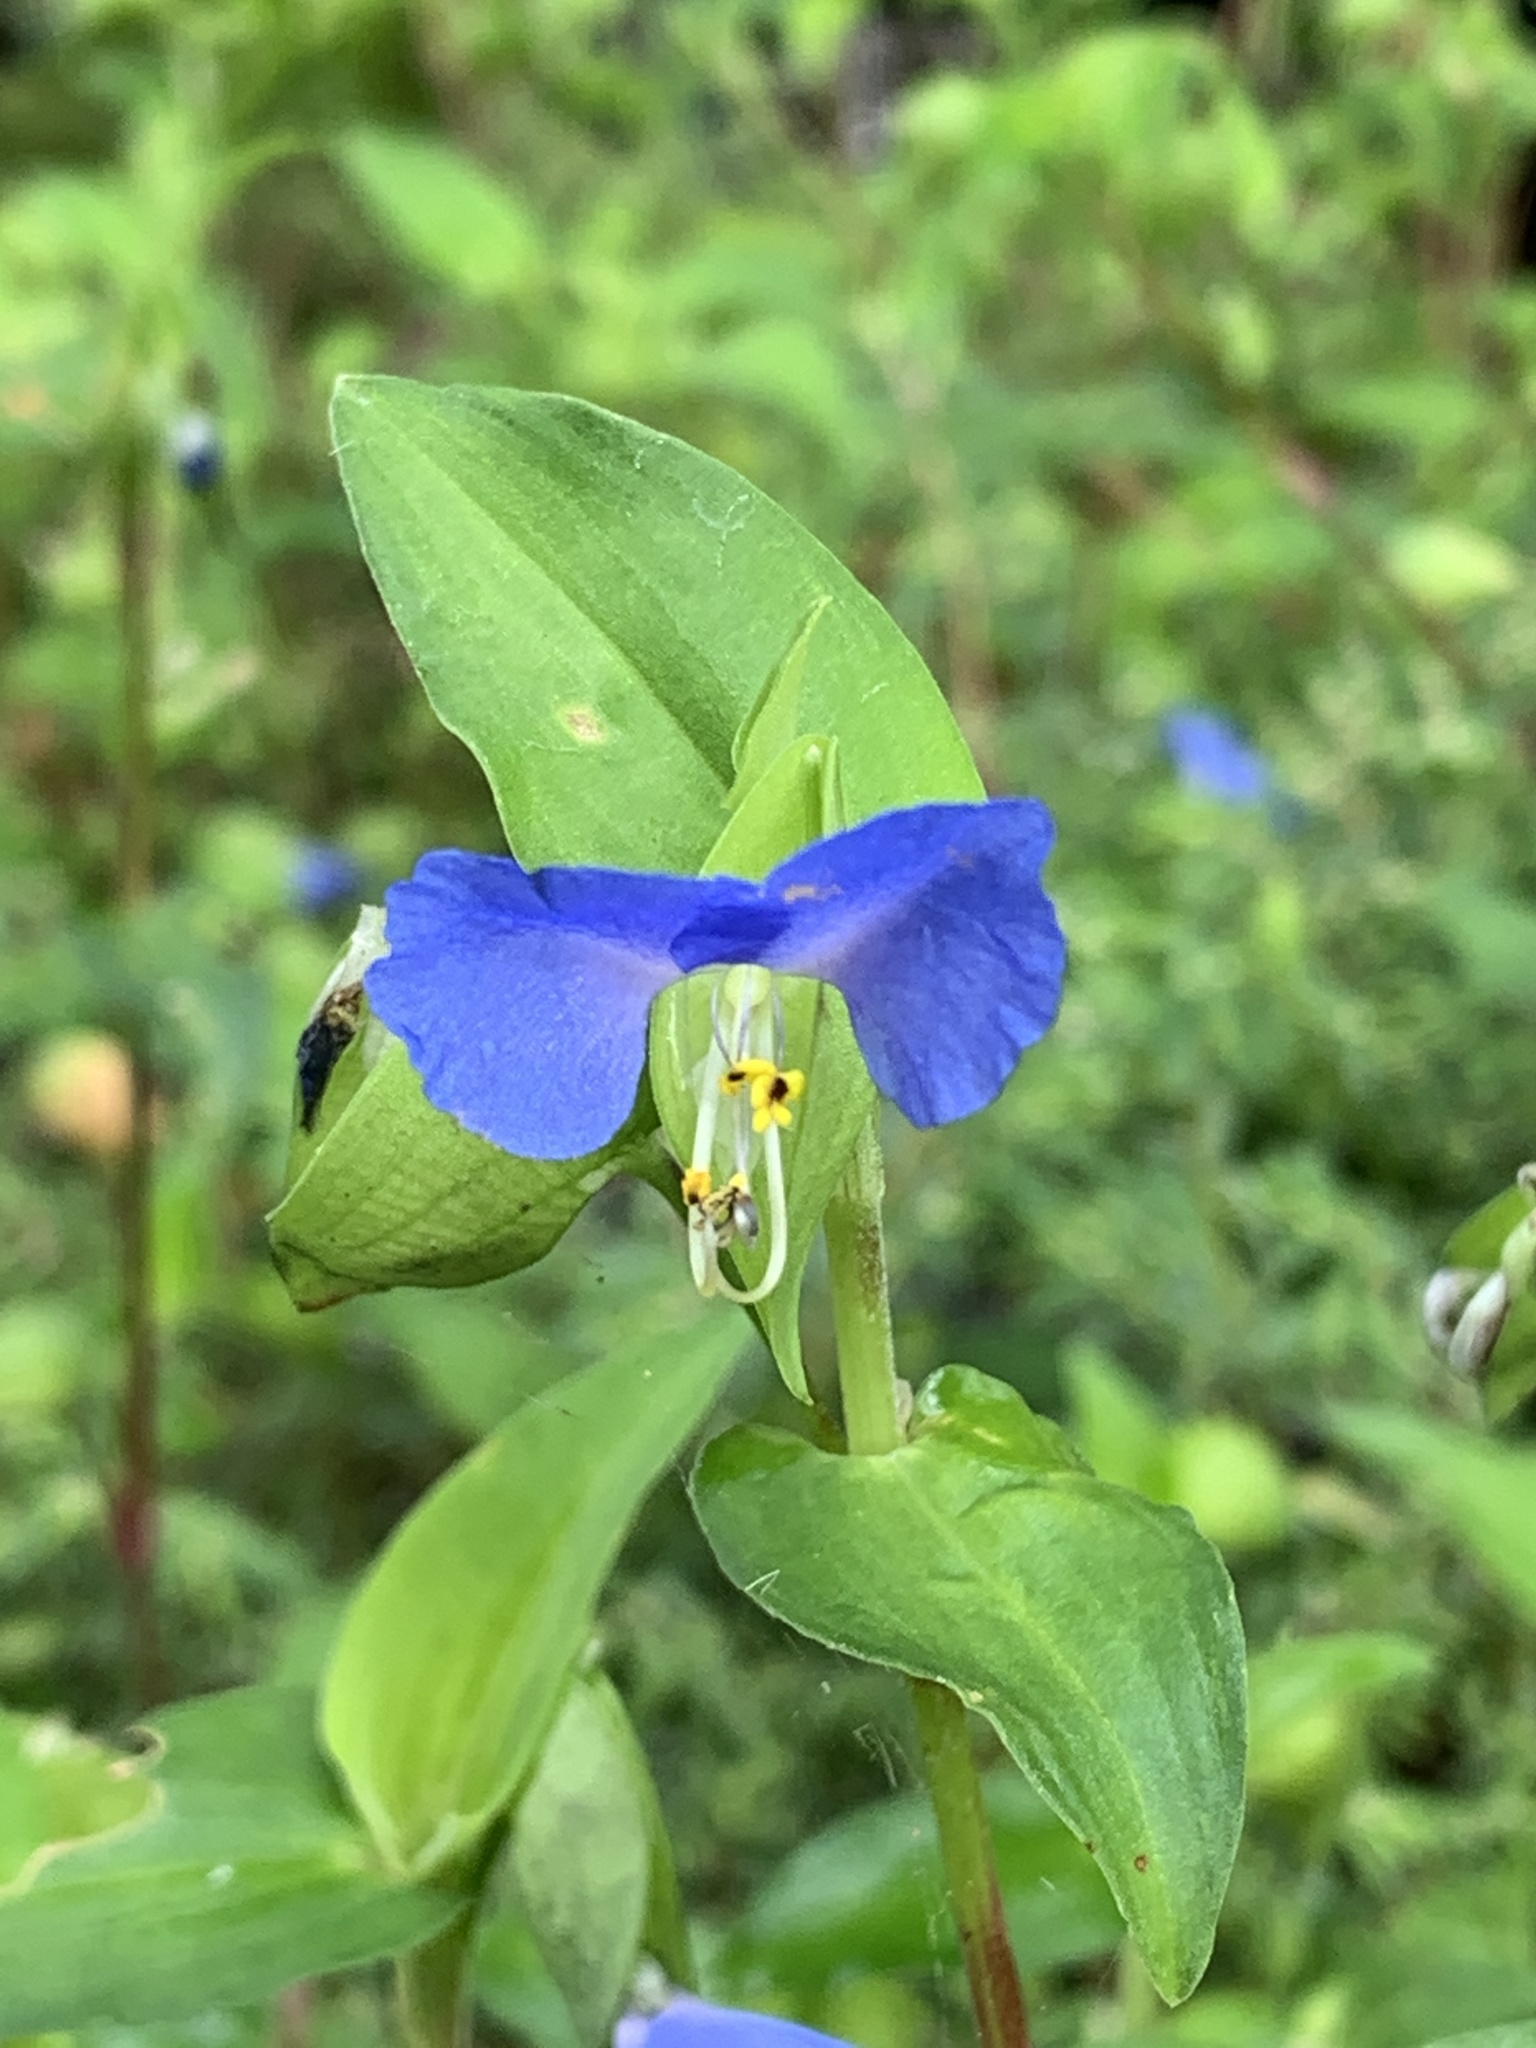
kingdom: Plantae
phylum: Tracheophyta
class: Liliopsida
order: Commelinales
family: Commelinaceae
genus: Commelina
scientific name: Commelina communis
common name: Asiatic dayflower
